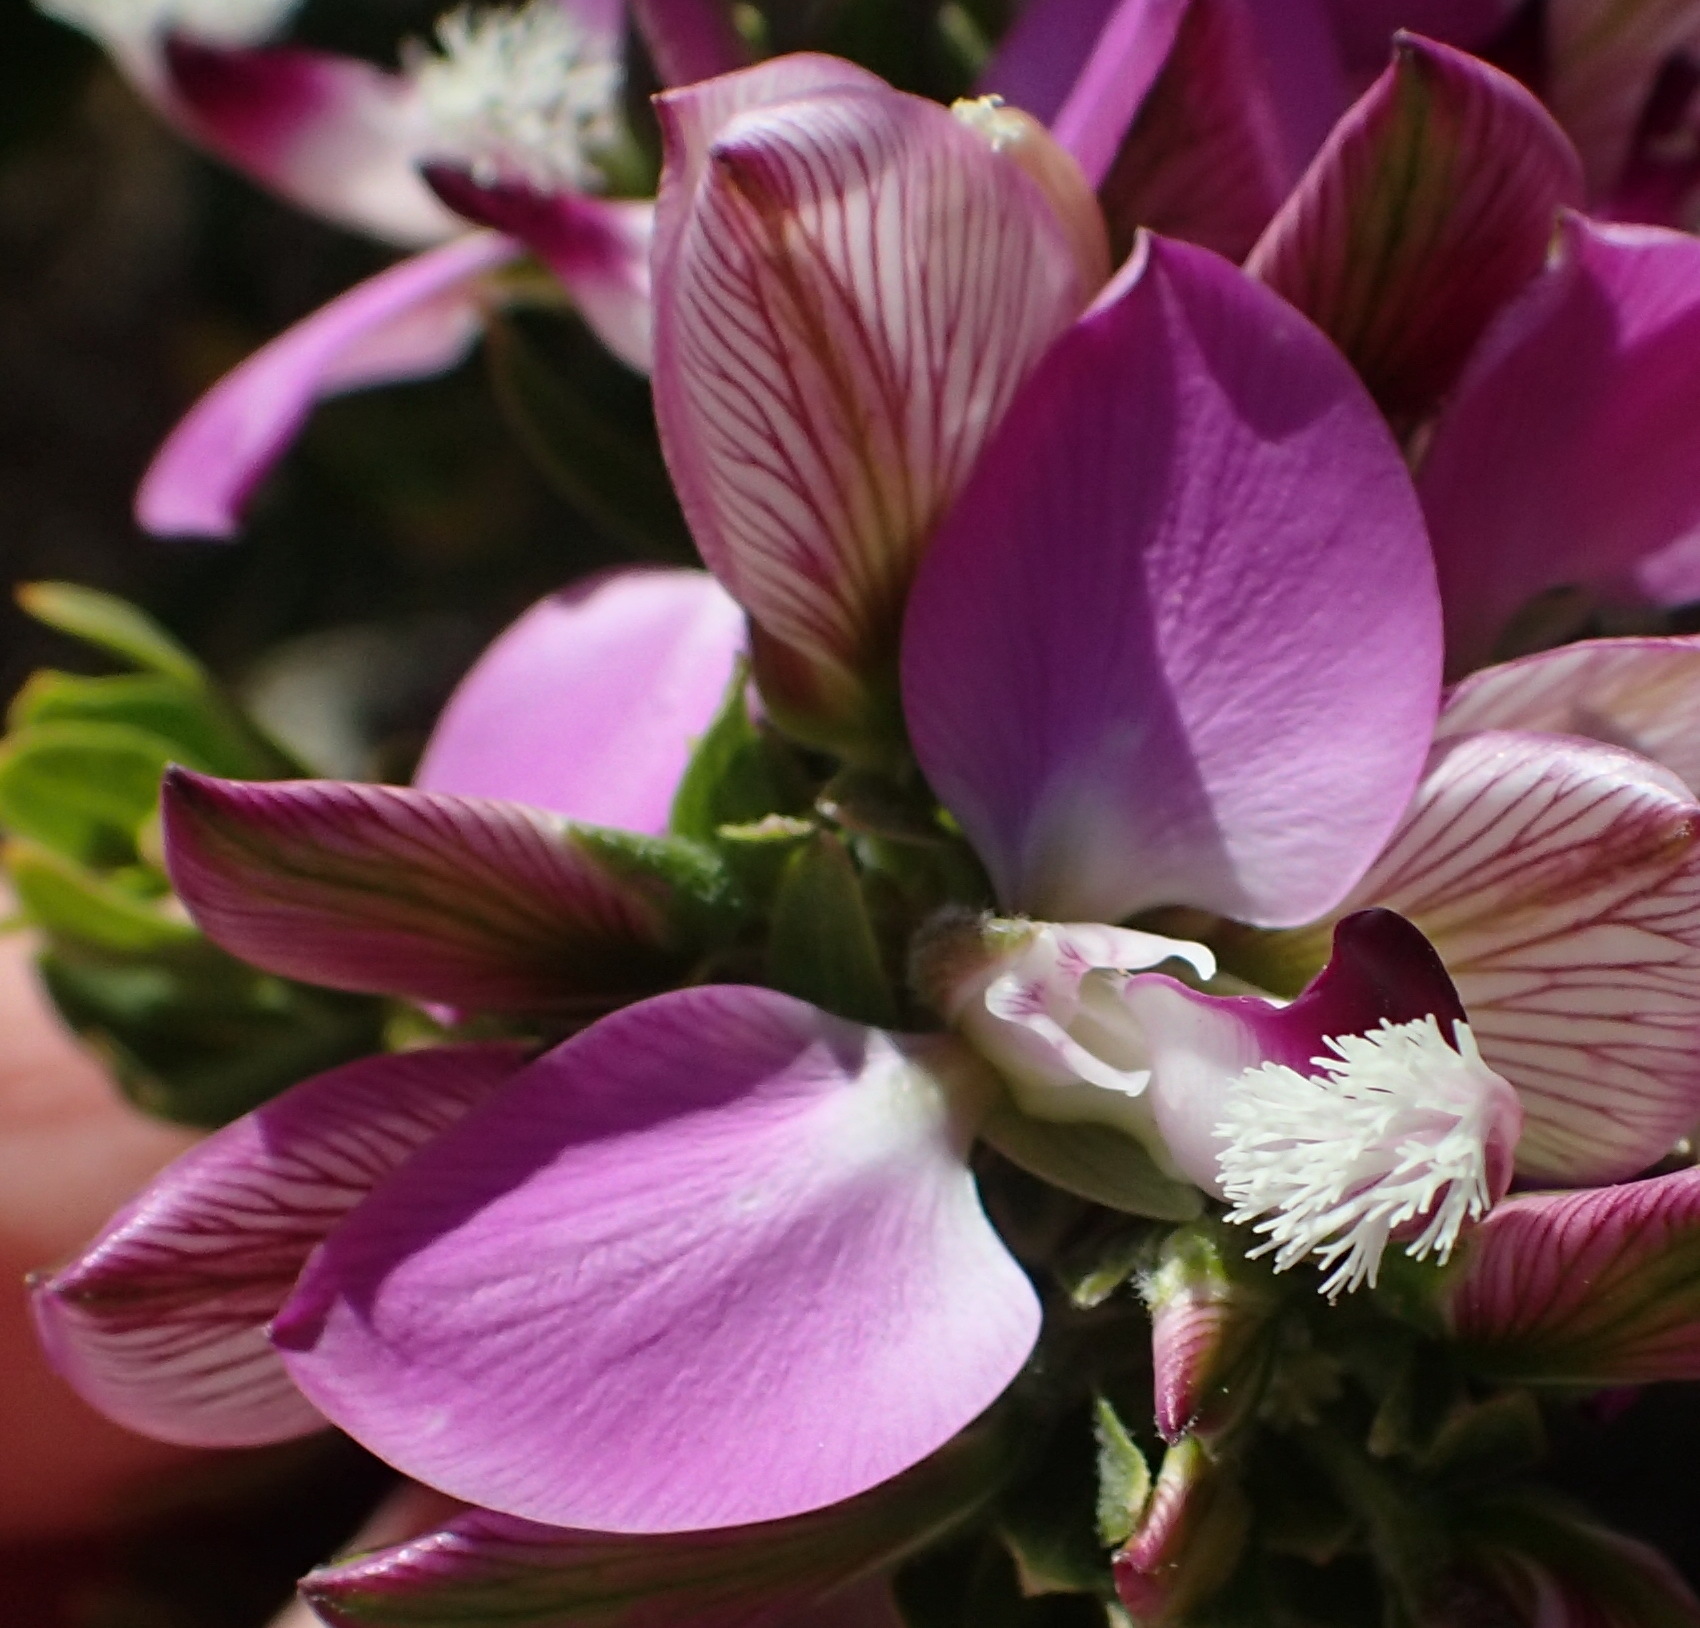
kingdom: Plantae
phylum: Tracheophyta
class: Magnoliopsida
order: Fabales
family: Polygalaceae
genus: Polygala
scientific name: Polygala myrtifolia
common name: Myrtle-leaf milkwort
